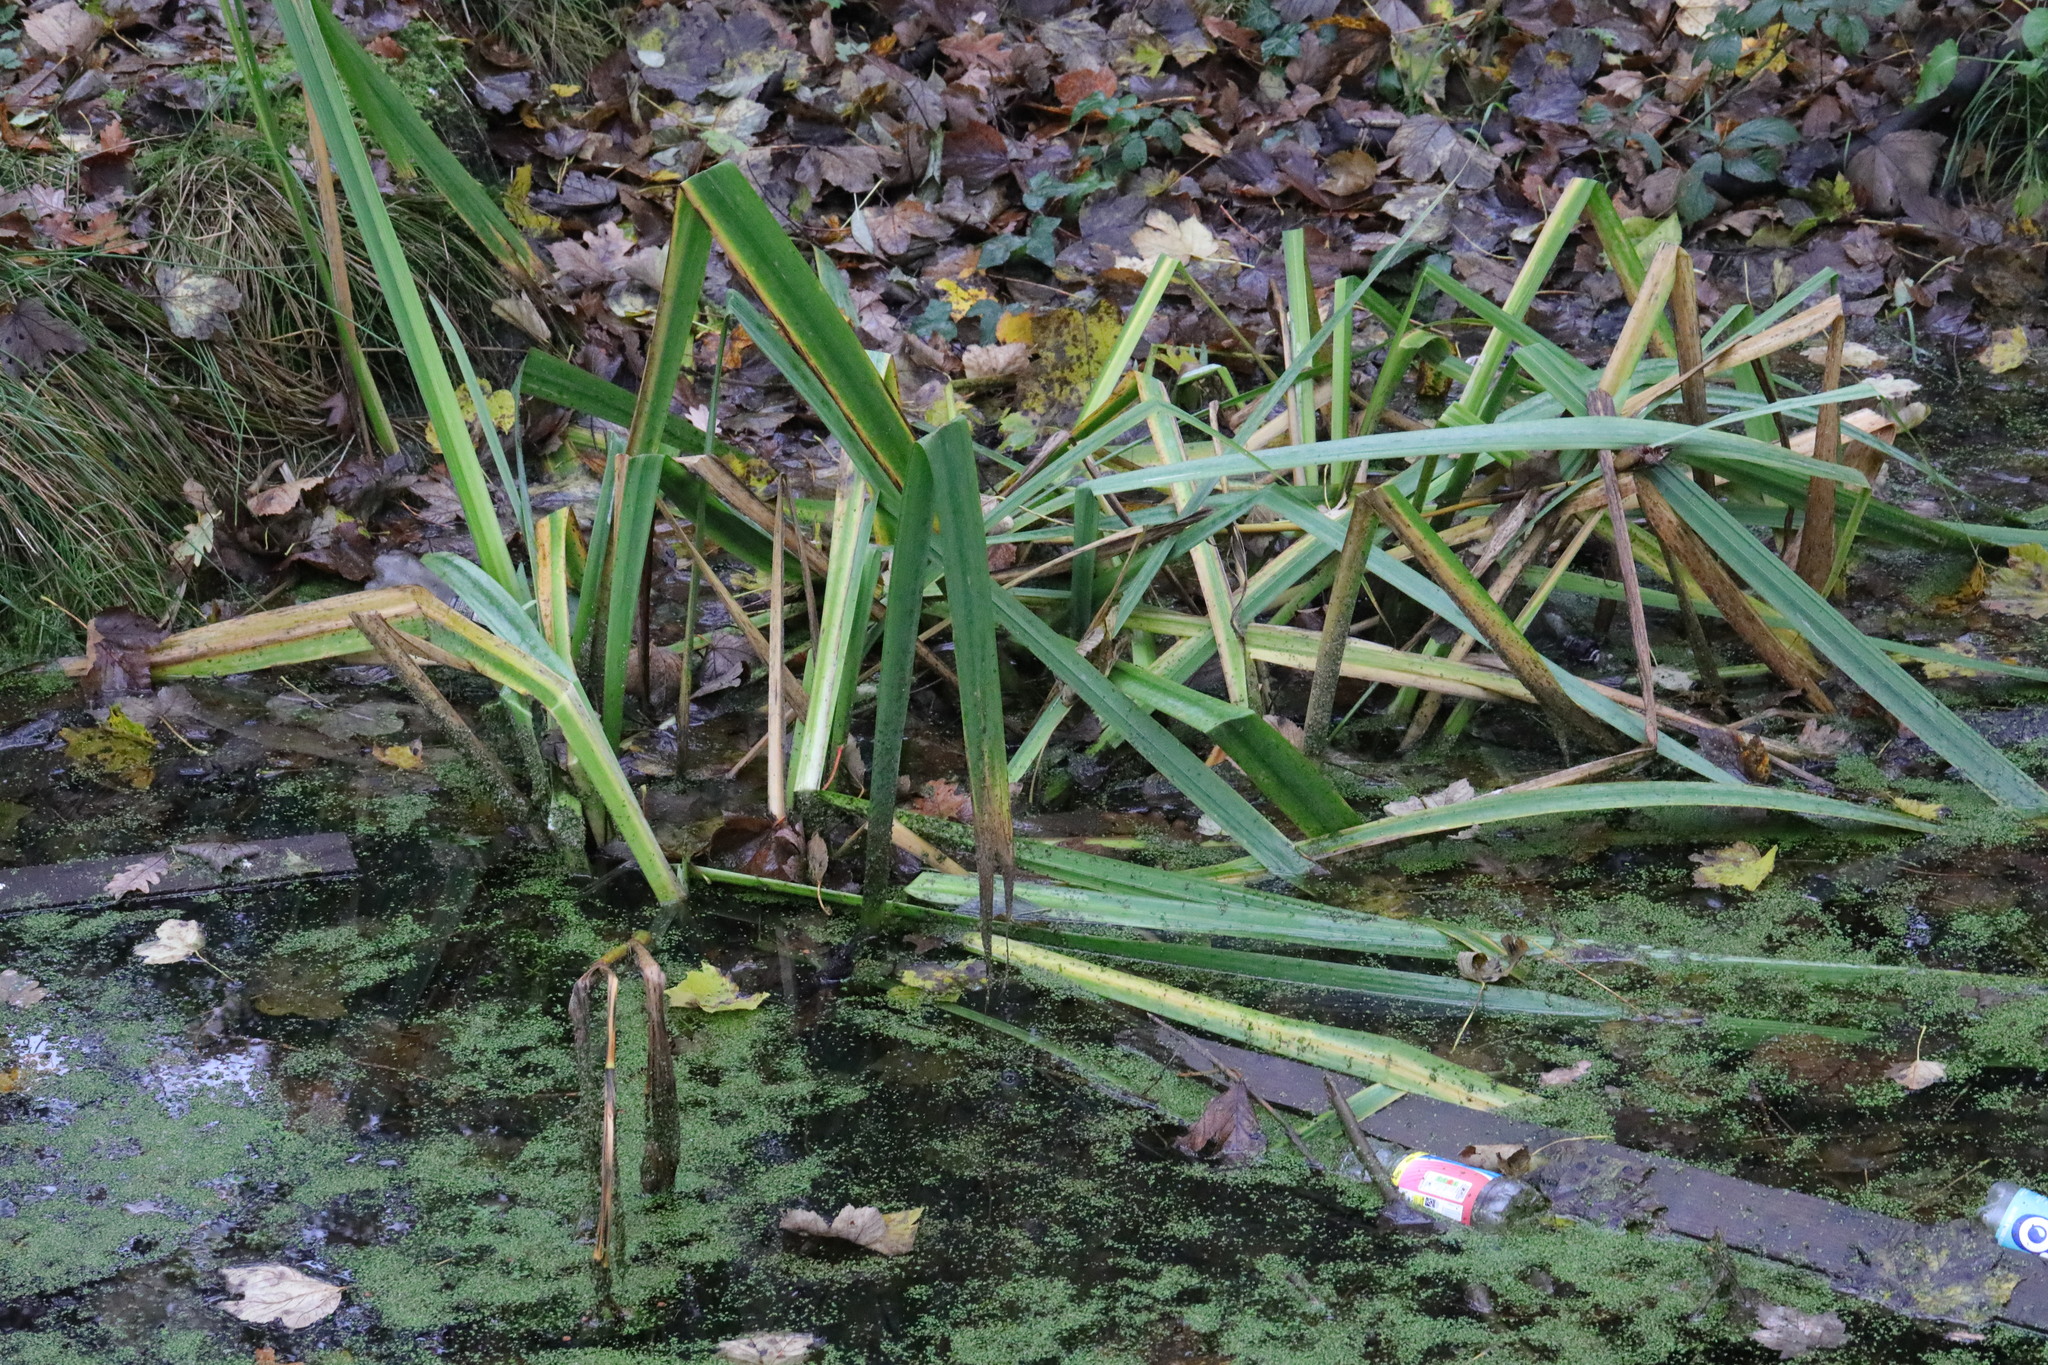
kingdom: Plantae
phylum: Tracheophyta
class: Liliopsida
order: Asparagales
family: Iridaceae
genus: Iris
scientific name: Iris pseudacorus
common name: Yellow flag
